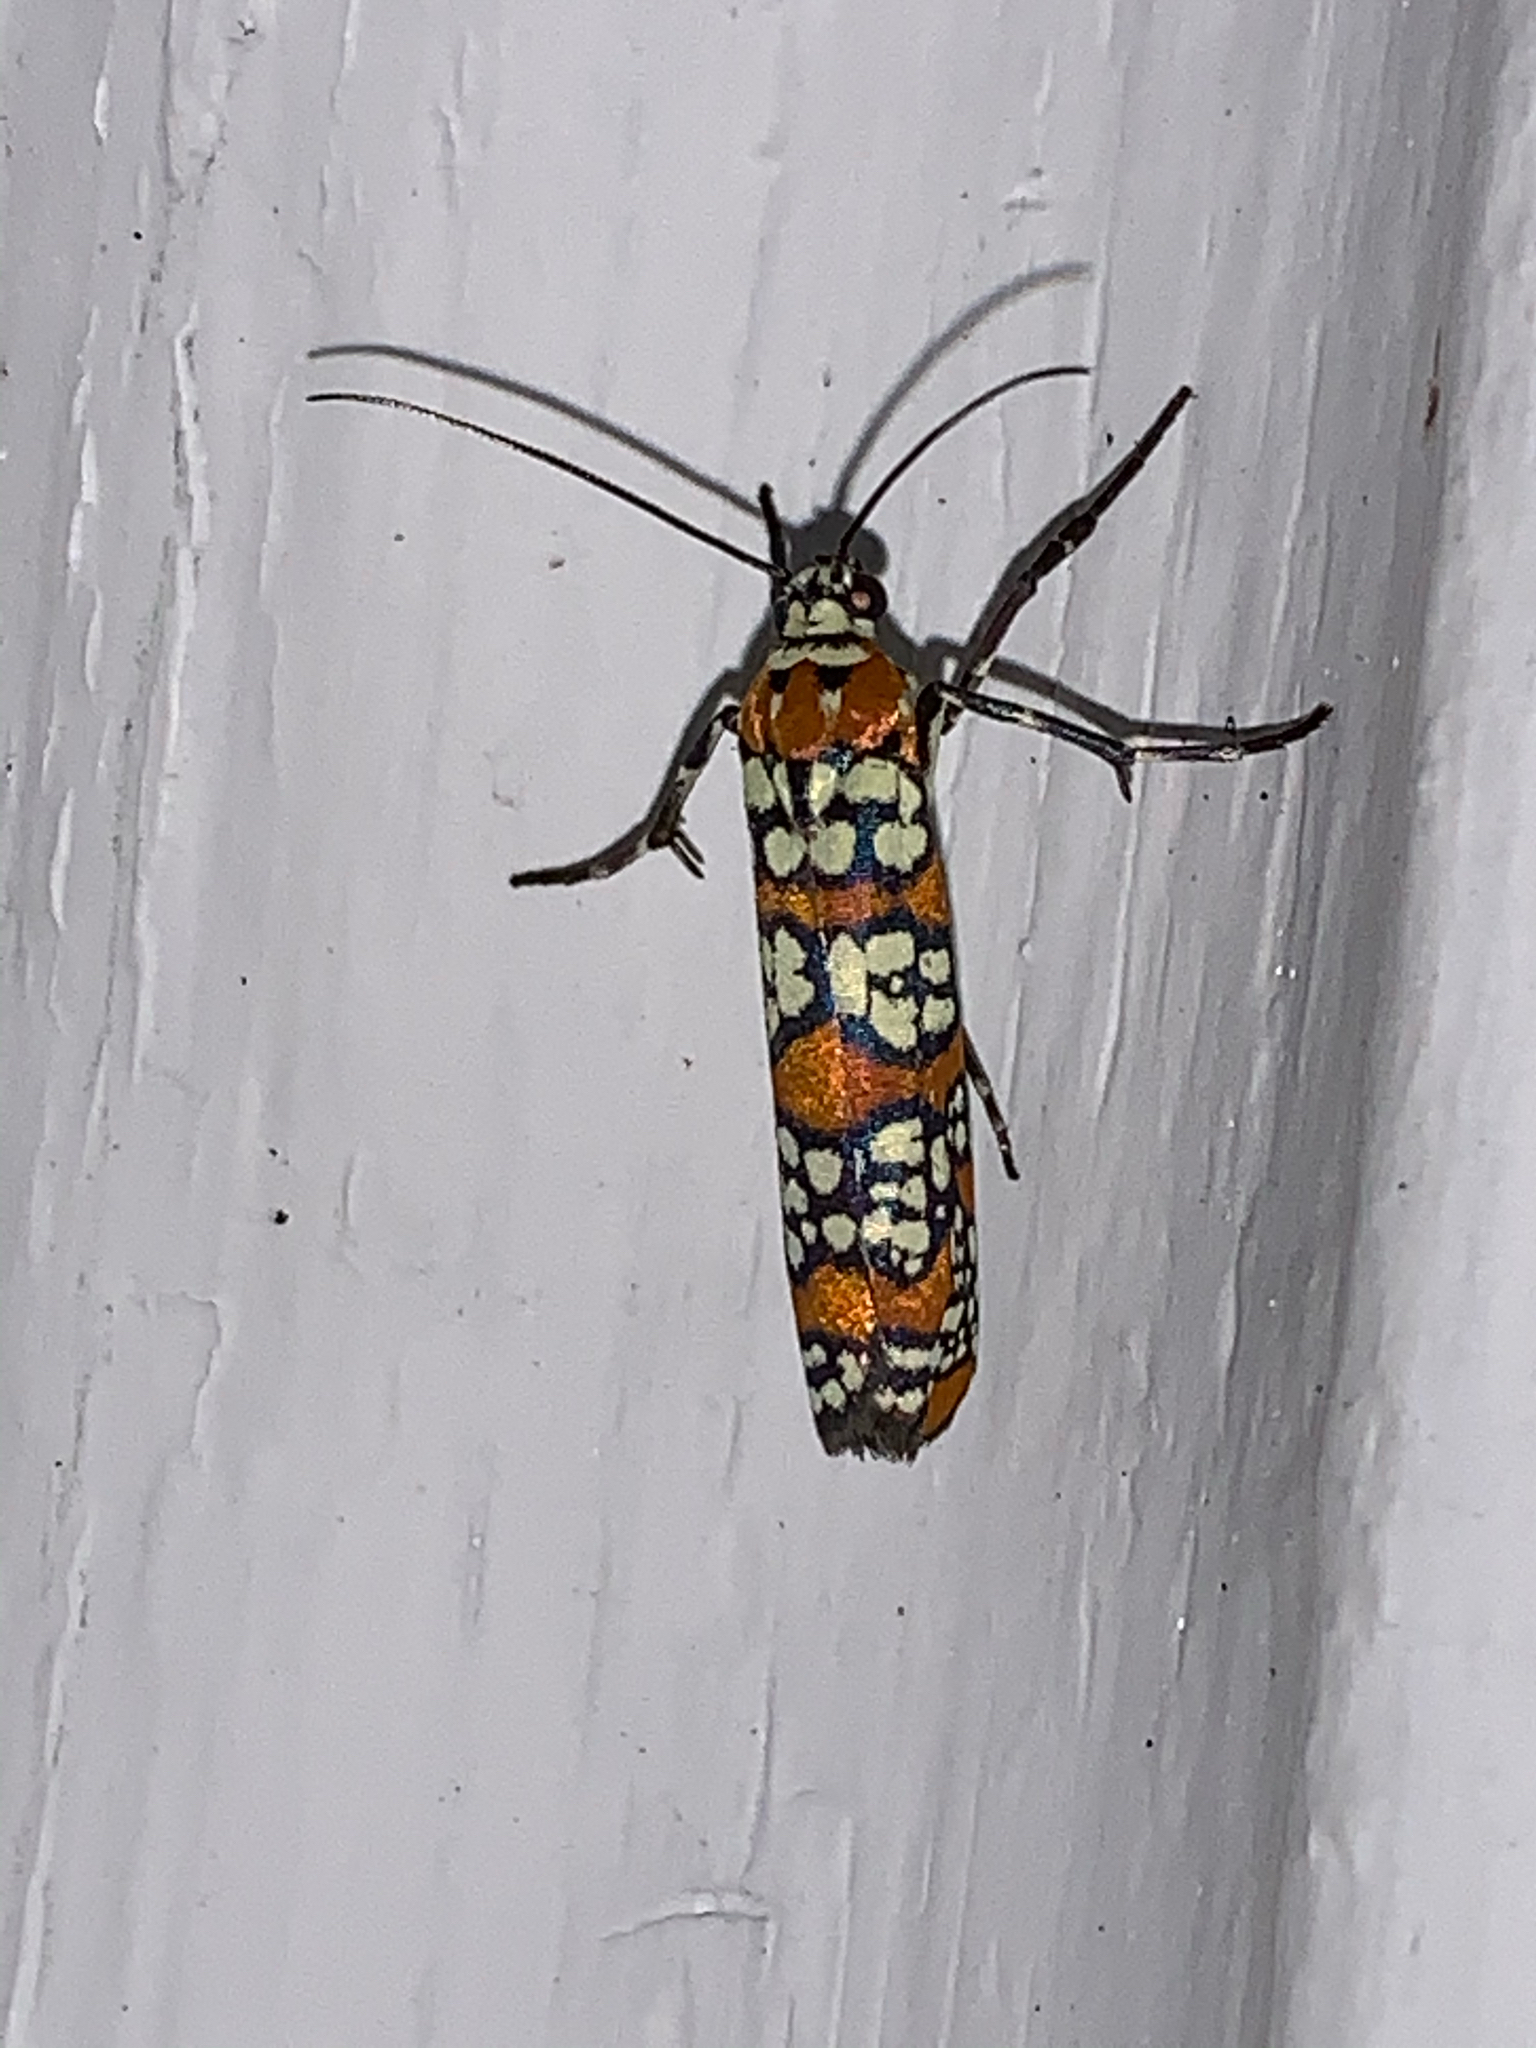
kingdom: Animalia
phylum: Arthropoda
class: Insecta
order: Lepidoptera
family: Attevidae
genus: Atteva
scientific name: Atteva punctella
